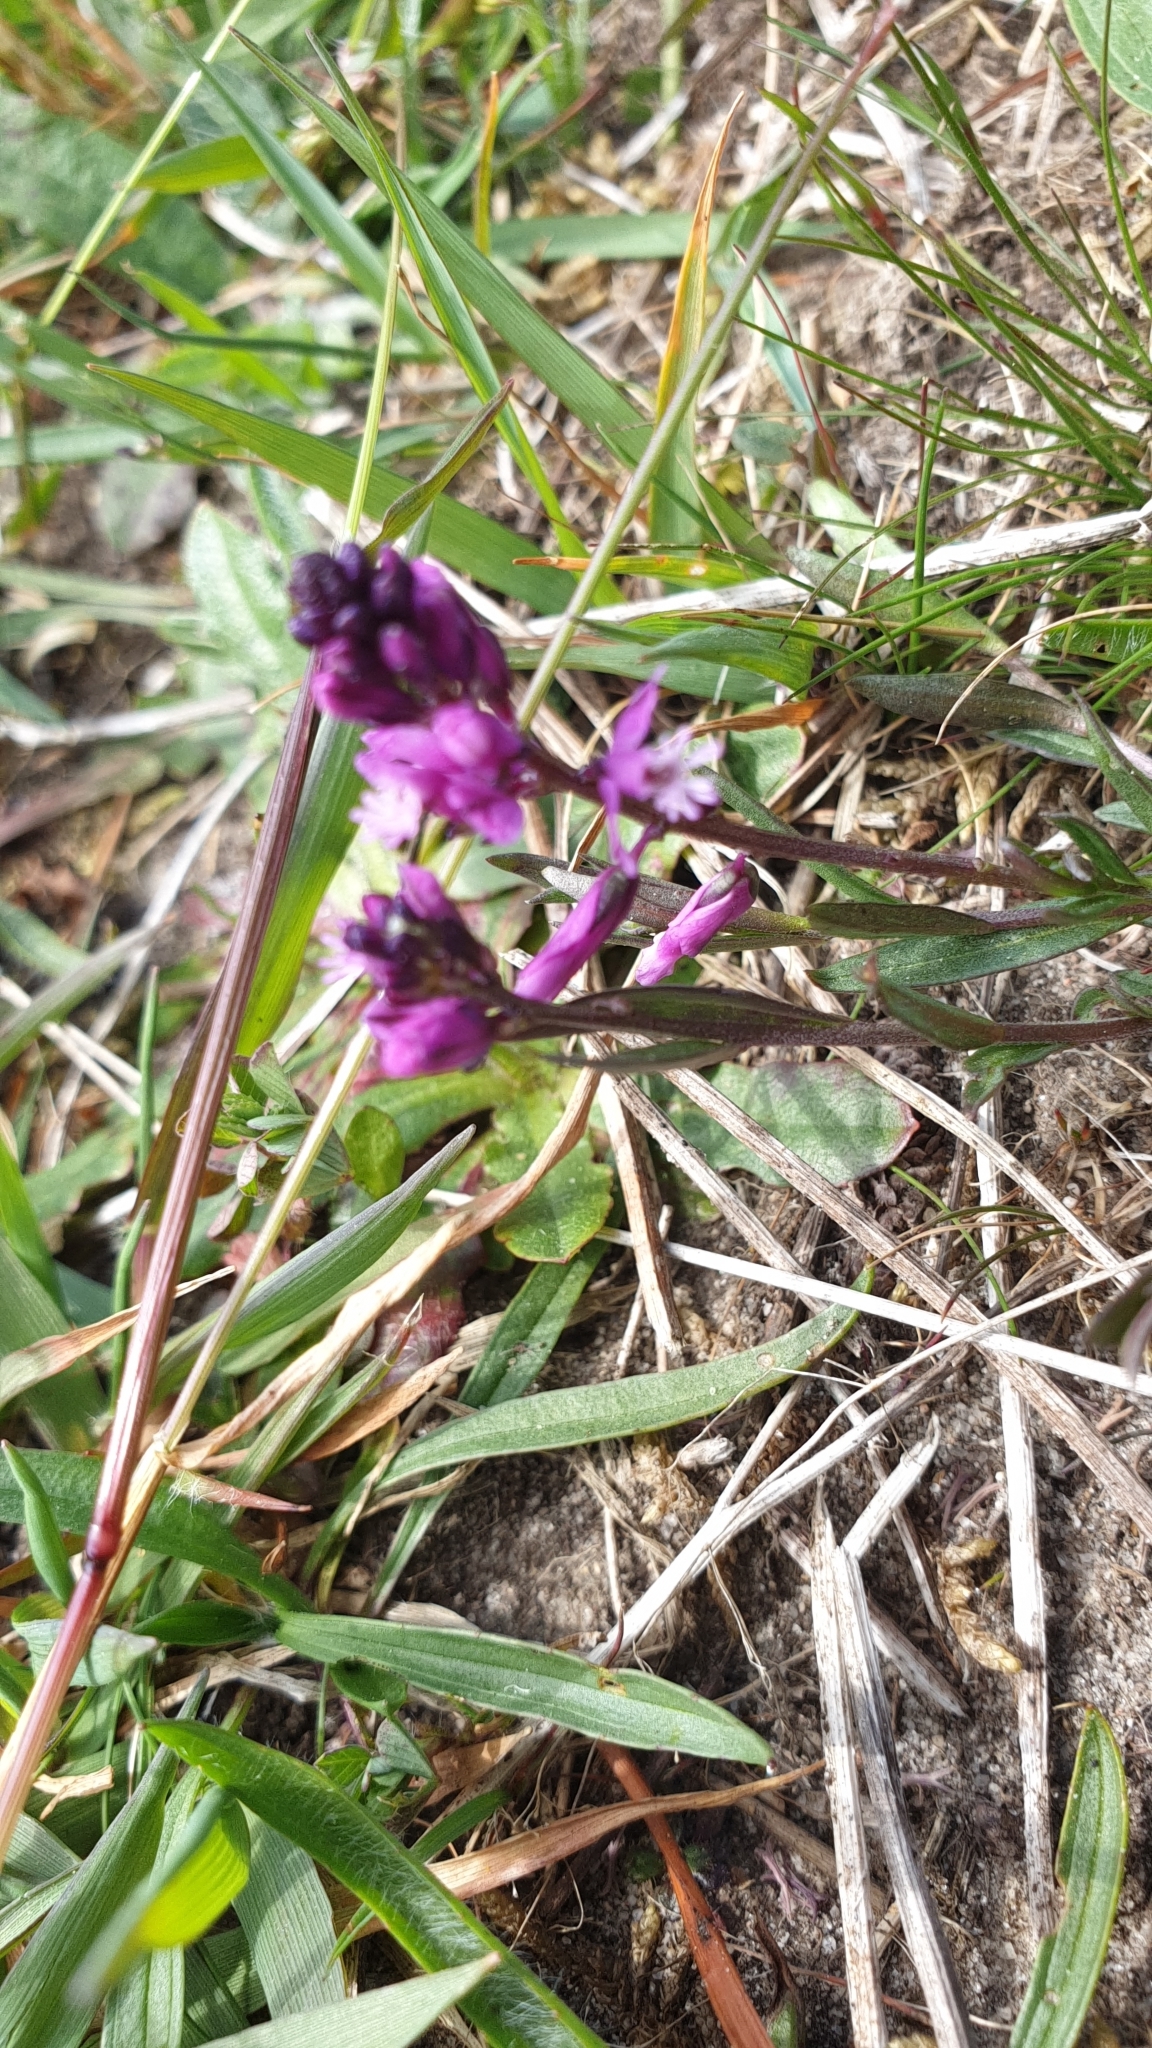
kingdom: Plantae
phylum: Tracheophyta
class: Magnoliopsida
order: Fabales
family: Polygalaceae
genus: Polygala
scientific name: Polygala vulgaris
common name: Common milkwort
